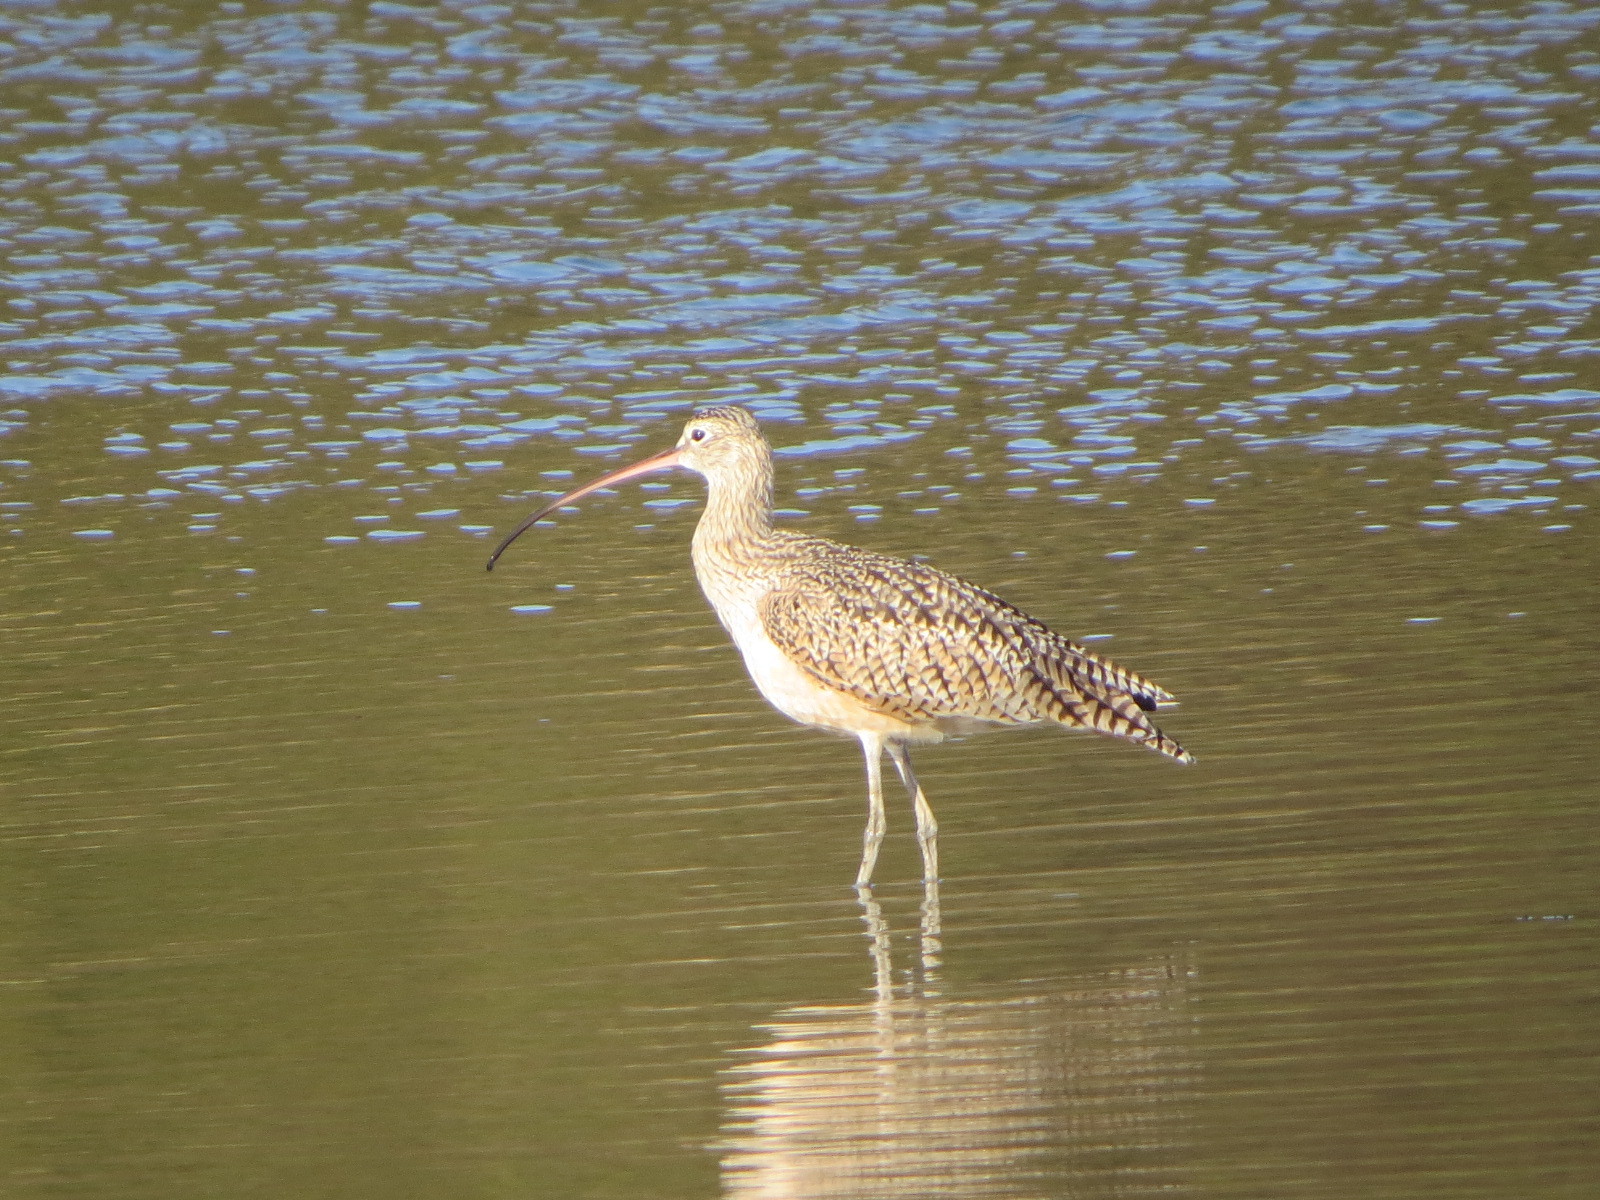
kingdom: Animalia
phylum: Chordata
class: Aves
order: Charadriiformes
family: Scolopacidae
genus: Numenius
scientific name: Numenius americanus
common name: Long-billed curlew
